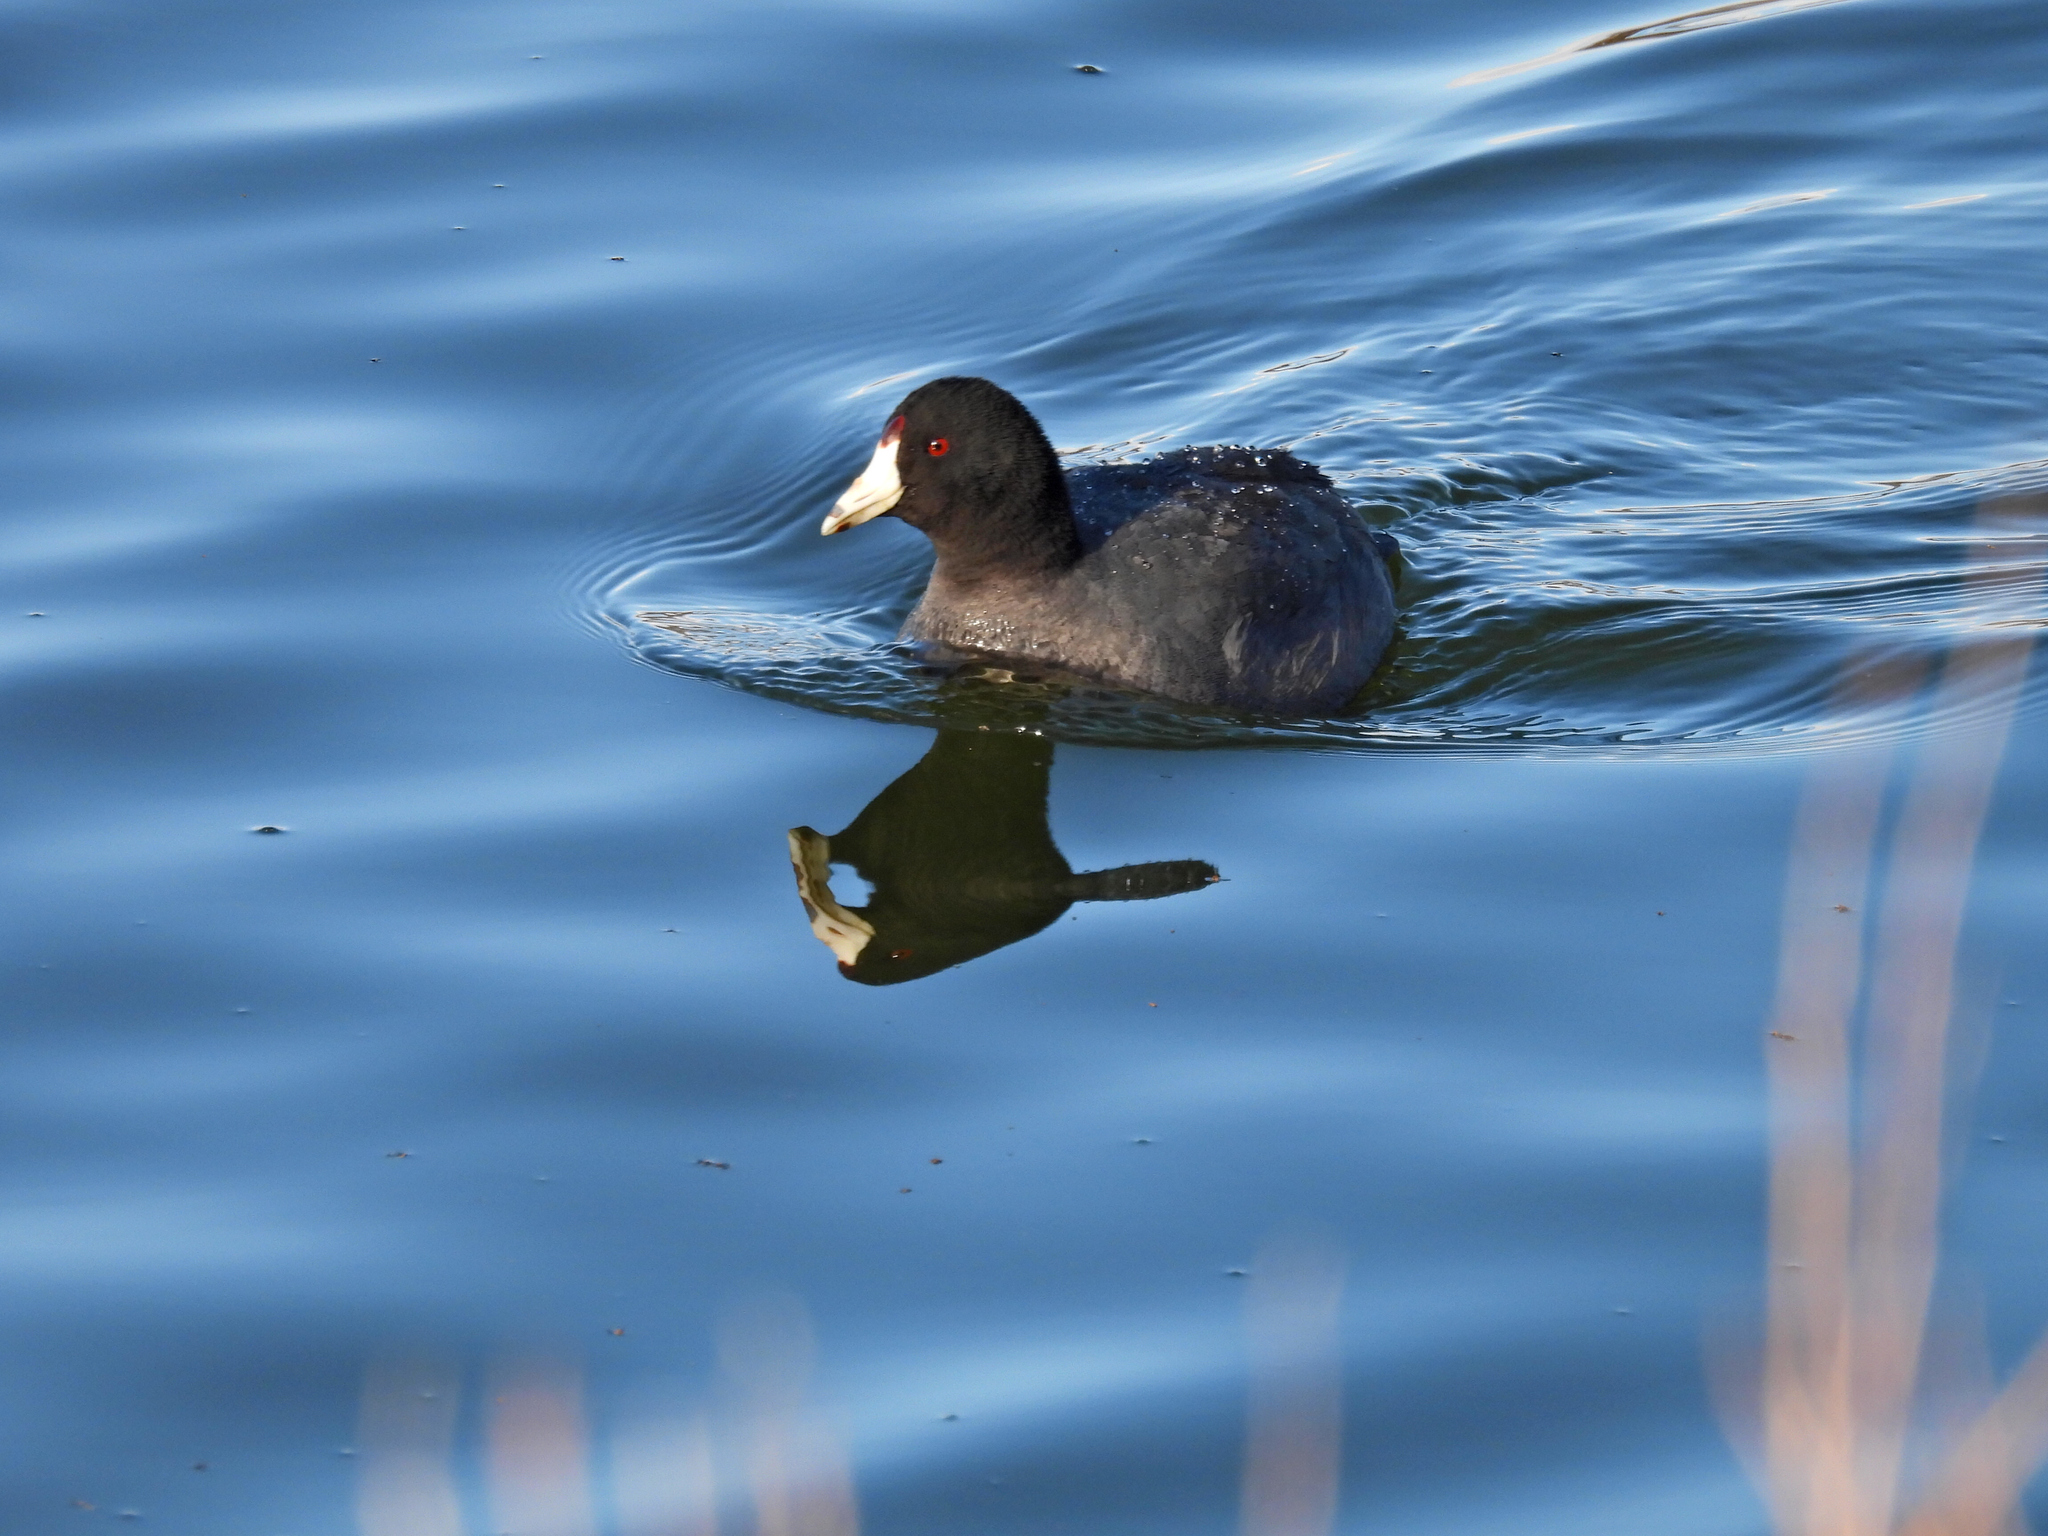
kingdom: Animalia
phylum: Chordata
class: Aves
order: Gruiformes
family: Rallidae
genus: Fulica
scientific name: Fulica americana
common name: American coot
